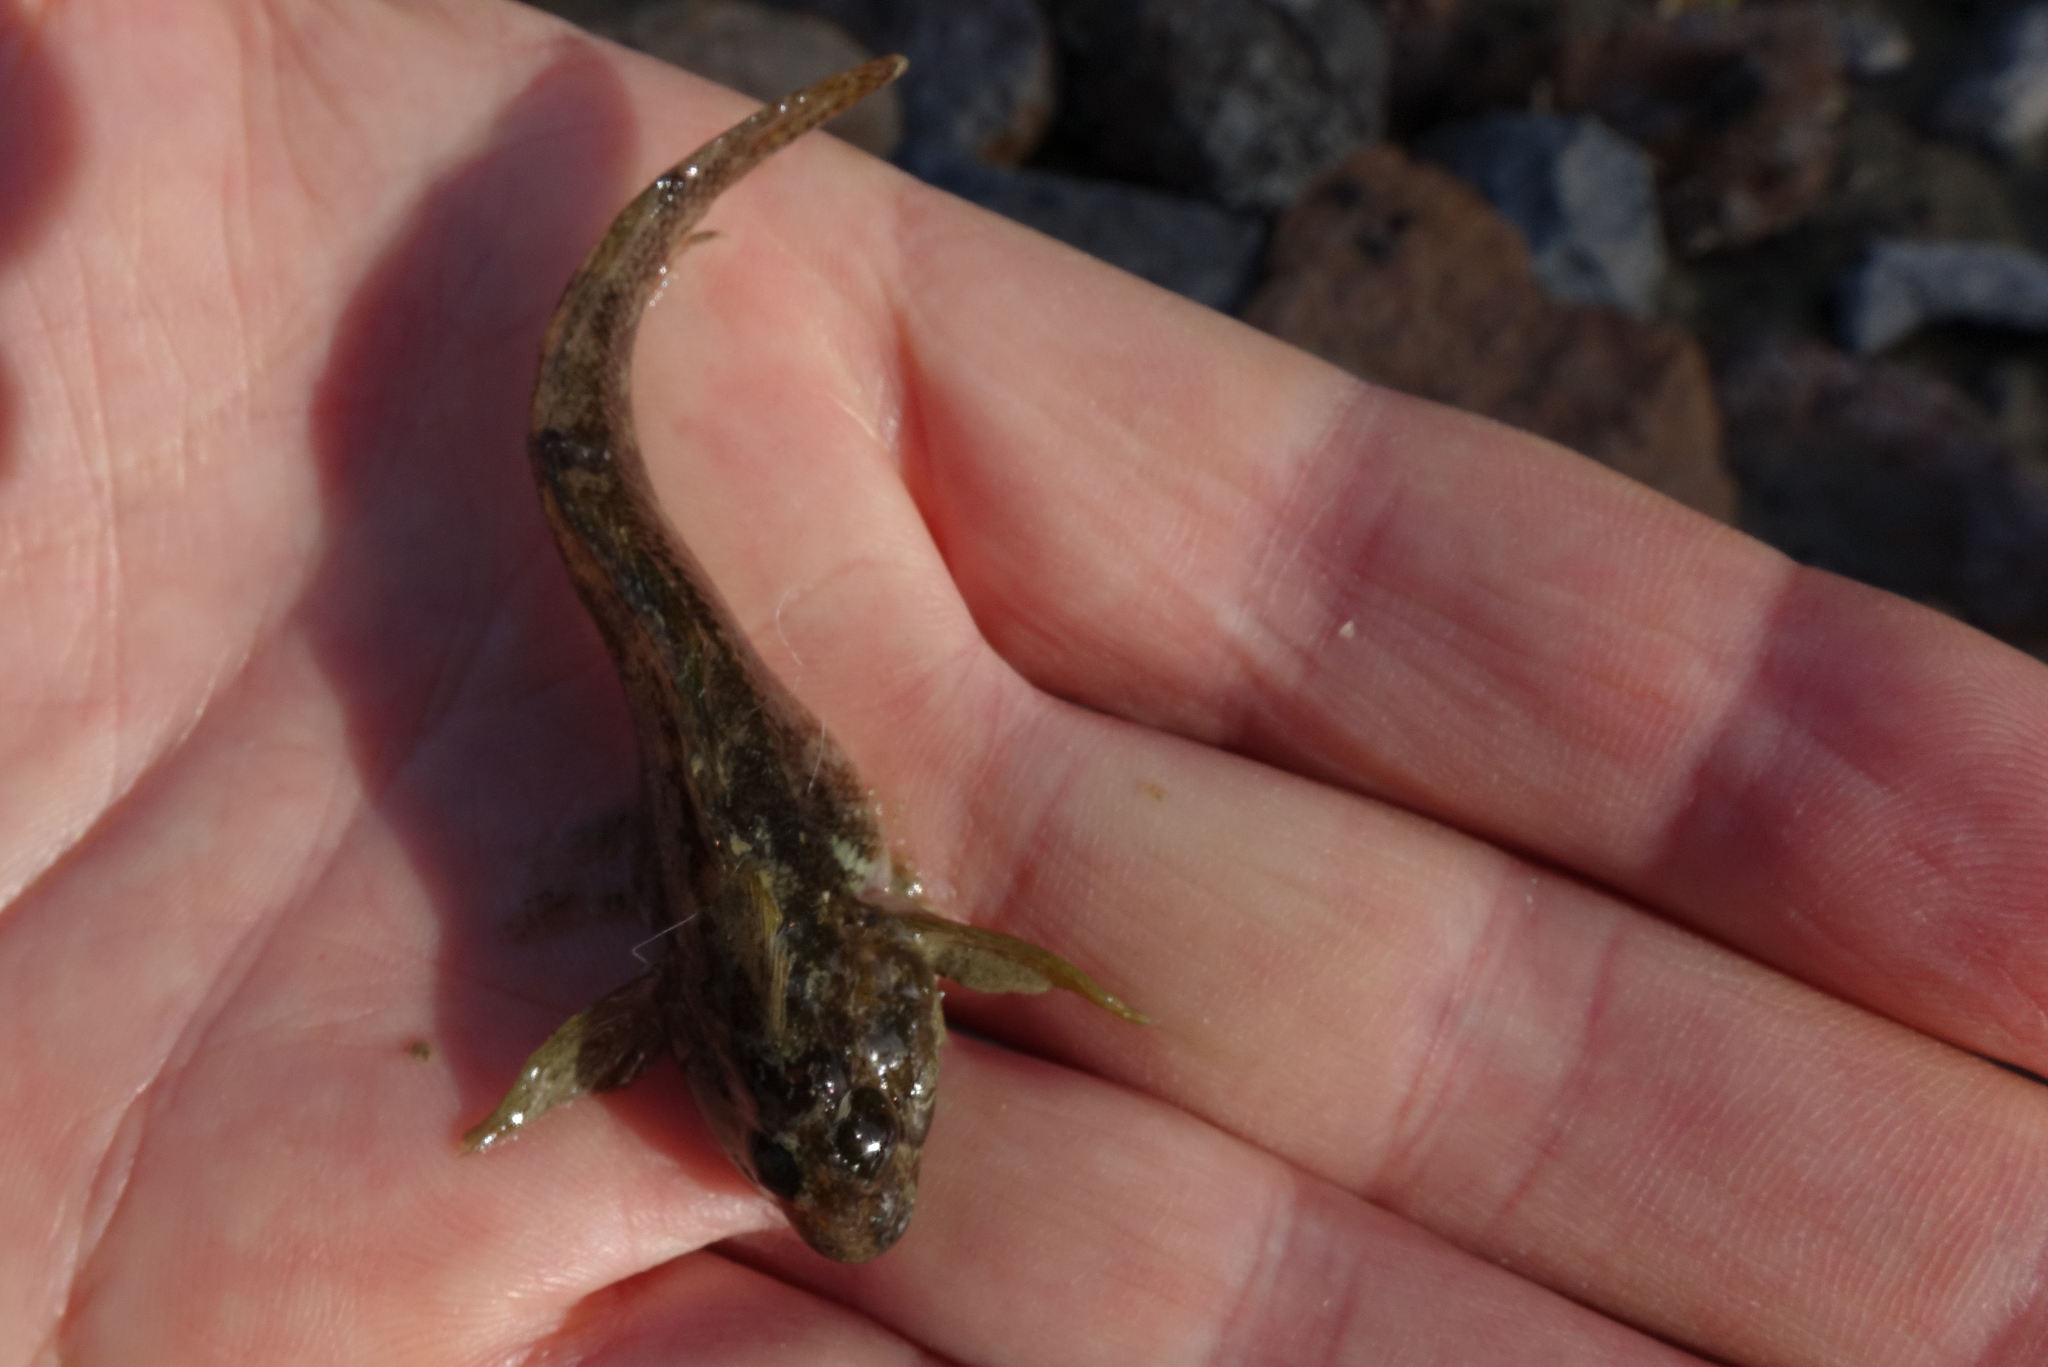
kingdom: Animalia
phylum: Chordata
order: Perciformes
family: Tripterygiidae
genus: Forsterygion
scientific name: Forsterygion capito
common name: Spotted robust triplefin
